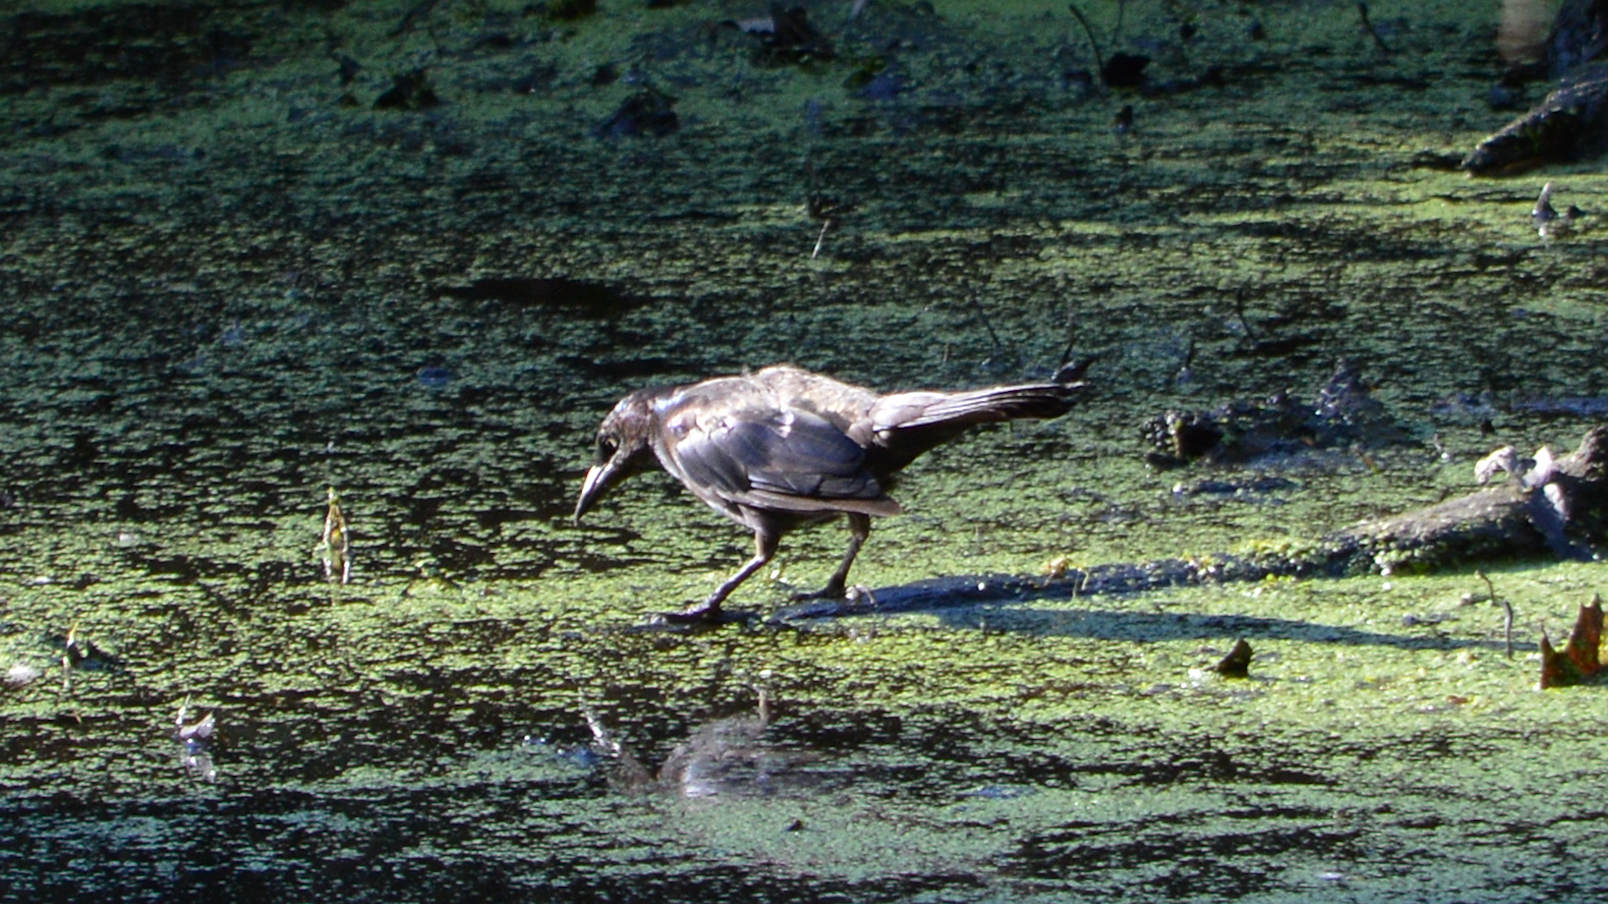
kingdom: Animalia
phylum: Chordata
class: Aves
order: Passeriformes
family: Icteridae
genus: Quiscalus
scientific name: Quiscalus quiscula
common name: Common grackle
